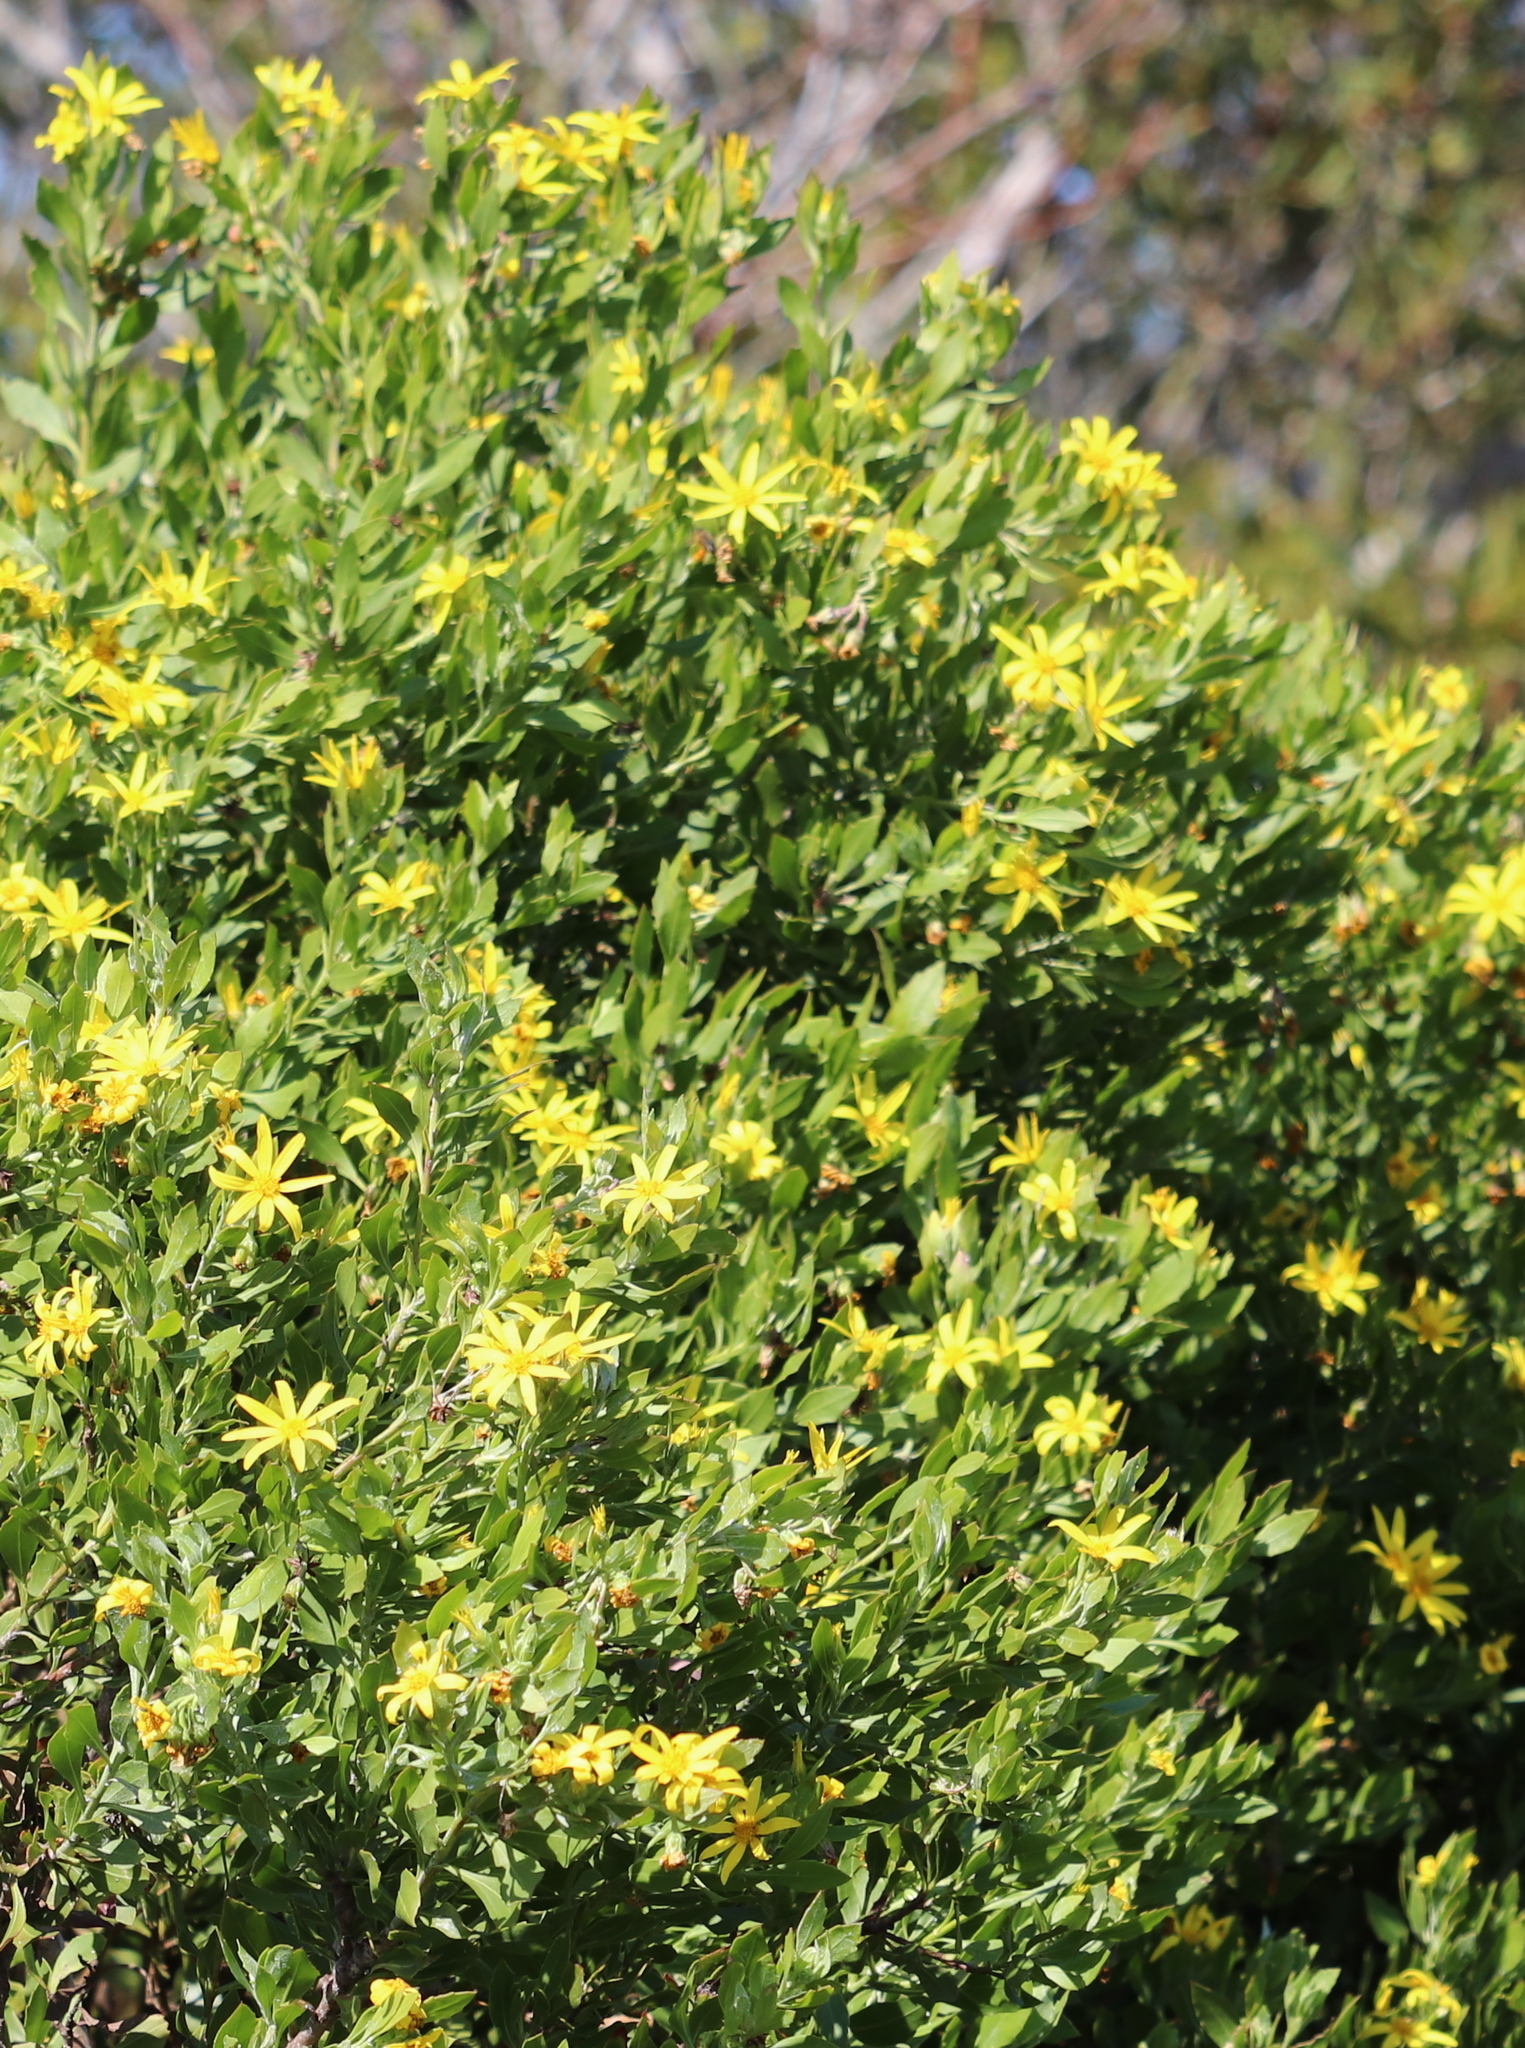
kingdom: Plantae
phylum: Tracheophyta
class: Magnoliopsida
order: Asterales
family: Asteraceae
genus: Osteospermum
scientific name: Osteospermum moniliferum
